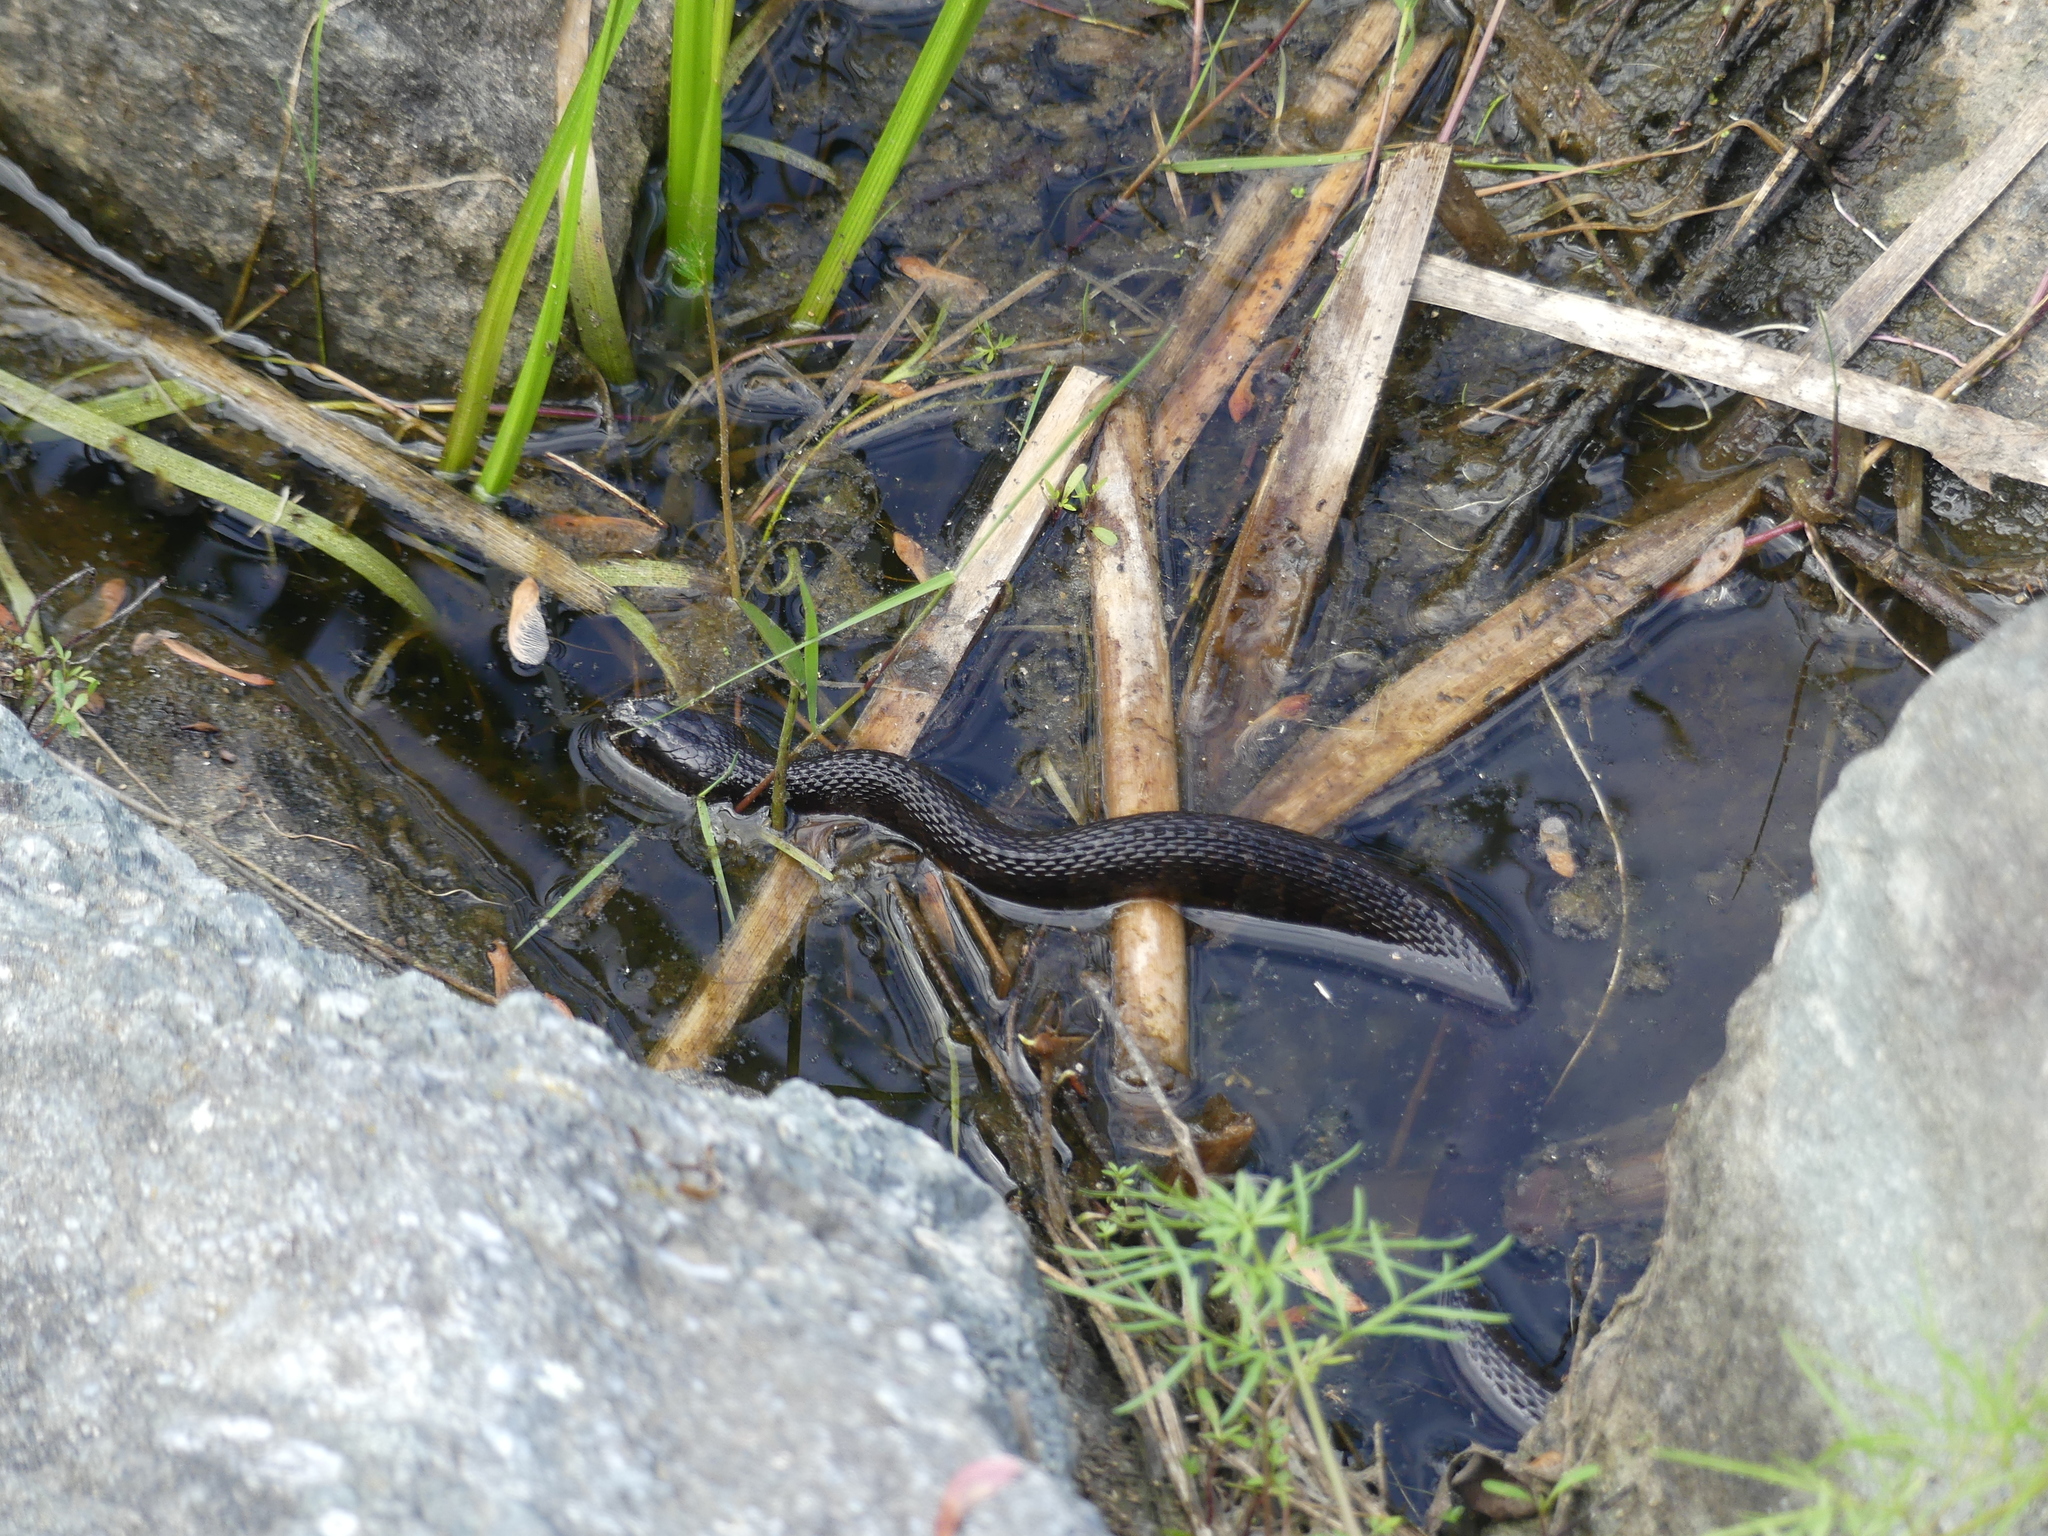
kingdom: Animalia
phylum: Chordata
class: Squamata
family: Colubridae
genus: Nerodia
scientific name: Nerodia sipedon
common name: Northern water snake
